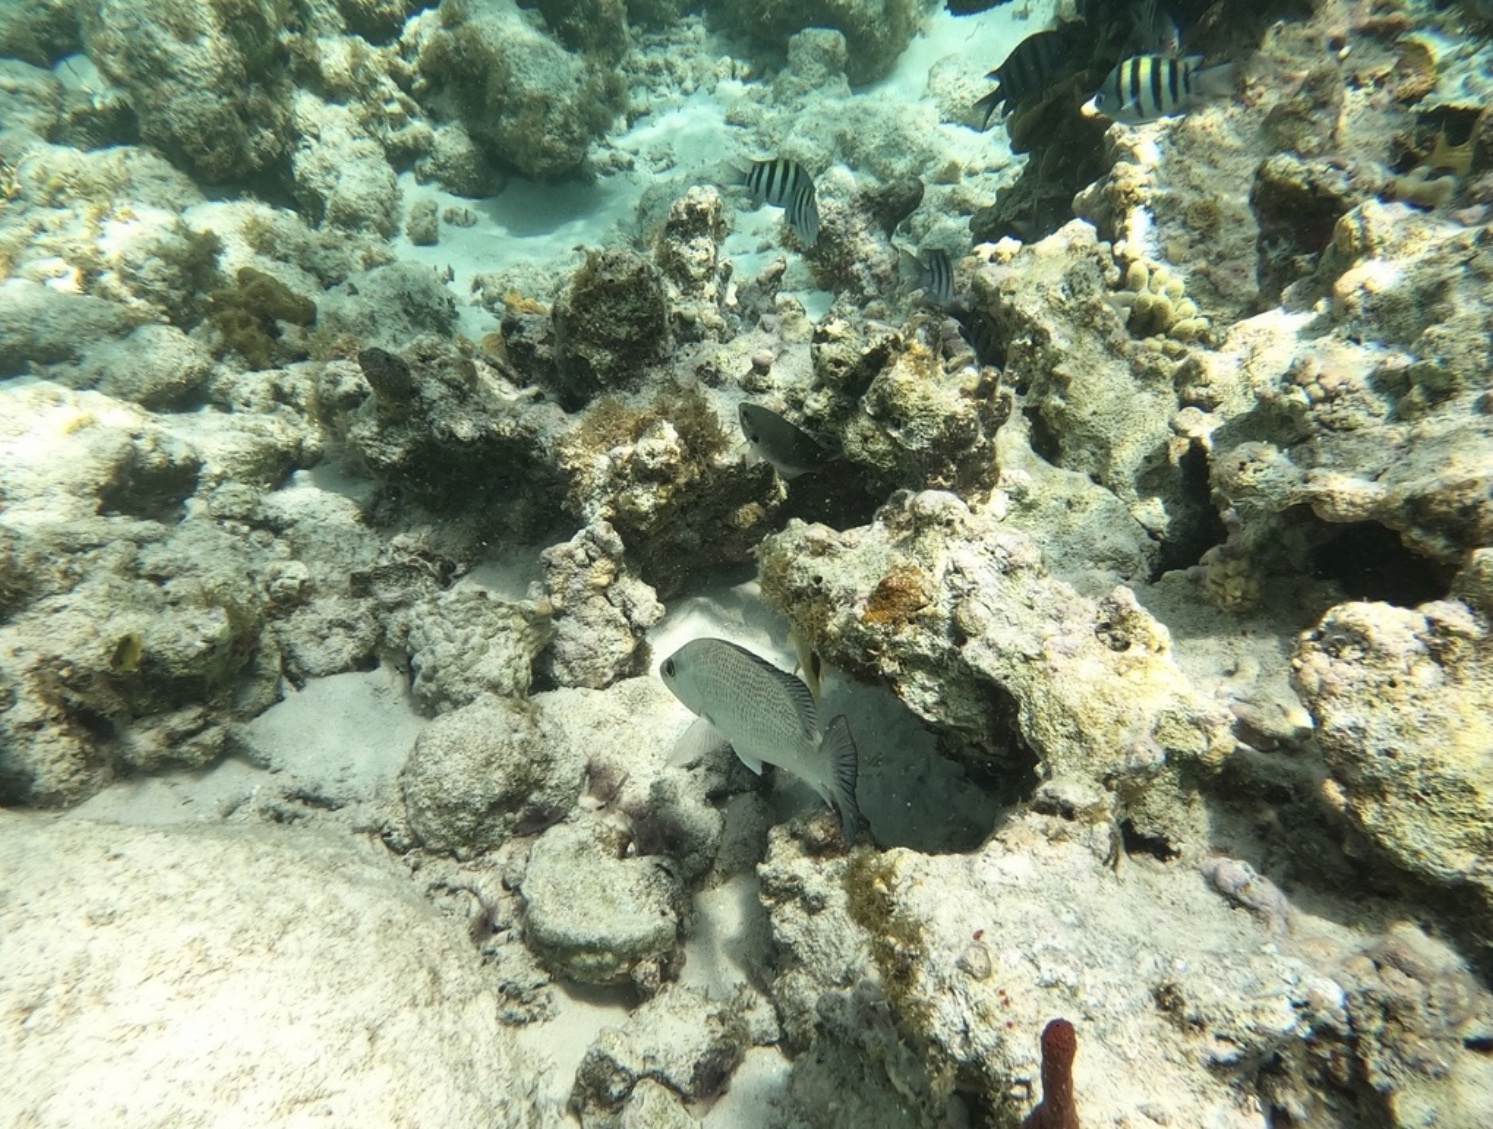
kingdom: Animalia
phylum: Chordata
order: Perciformes
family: Lutjanidae
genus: Lutjanus
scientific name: Lutjanus griseus
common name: Gray snapper
